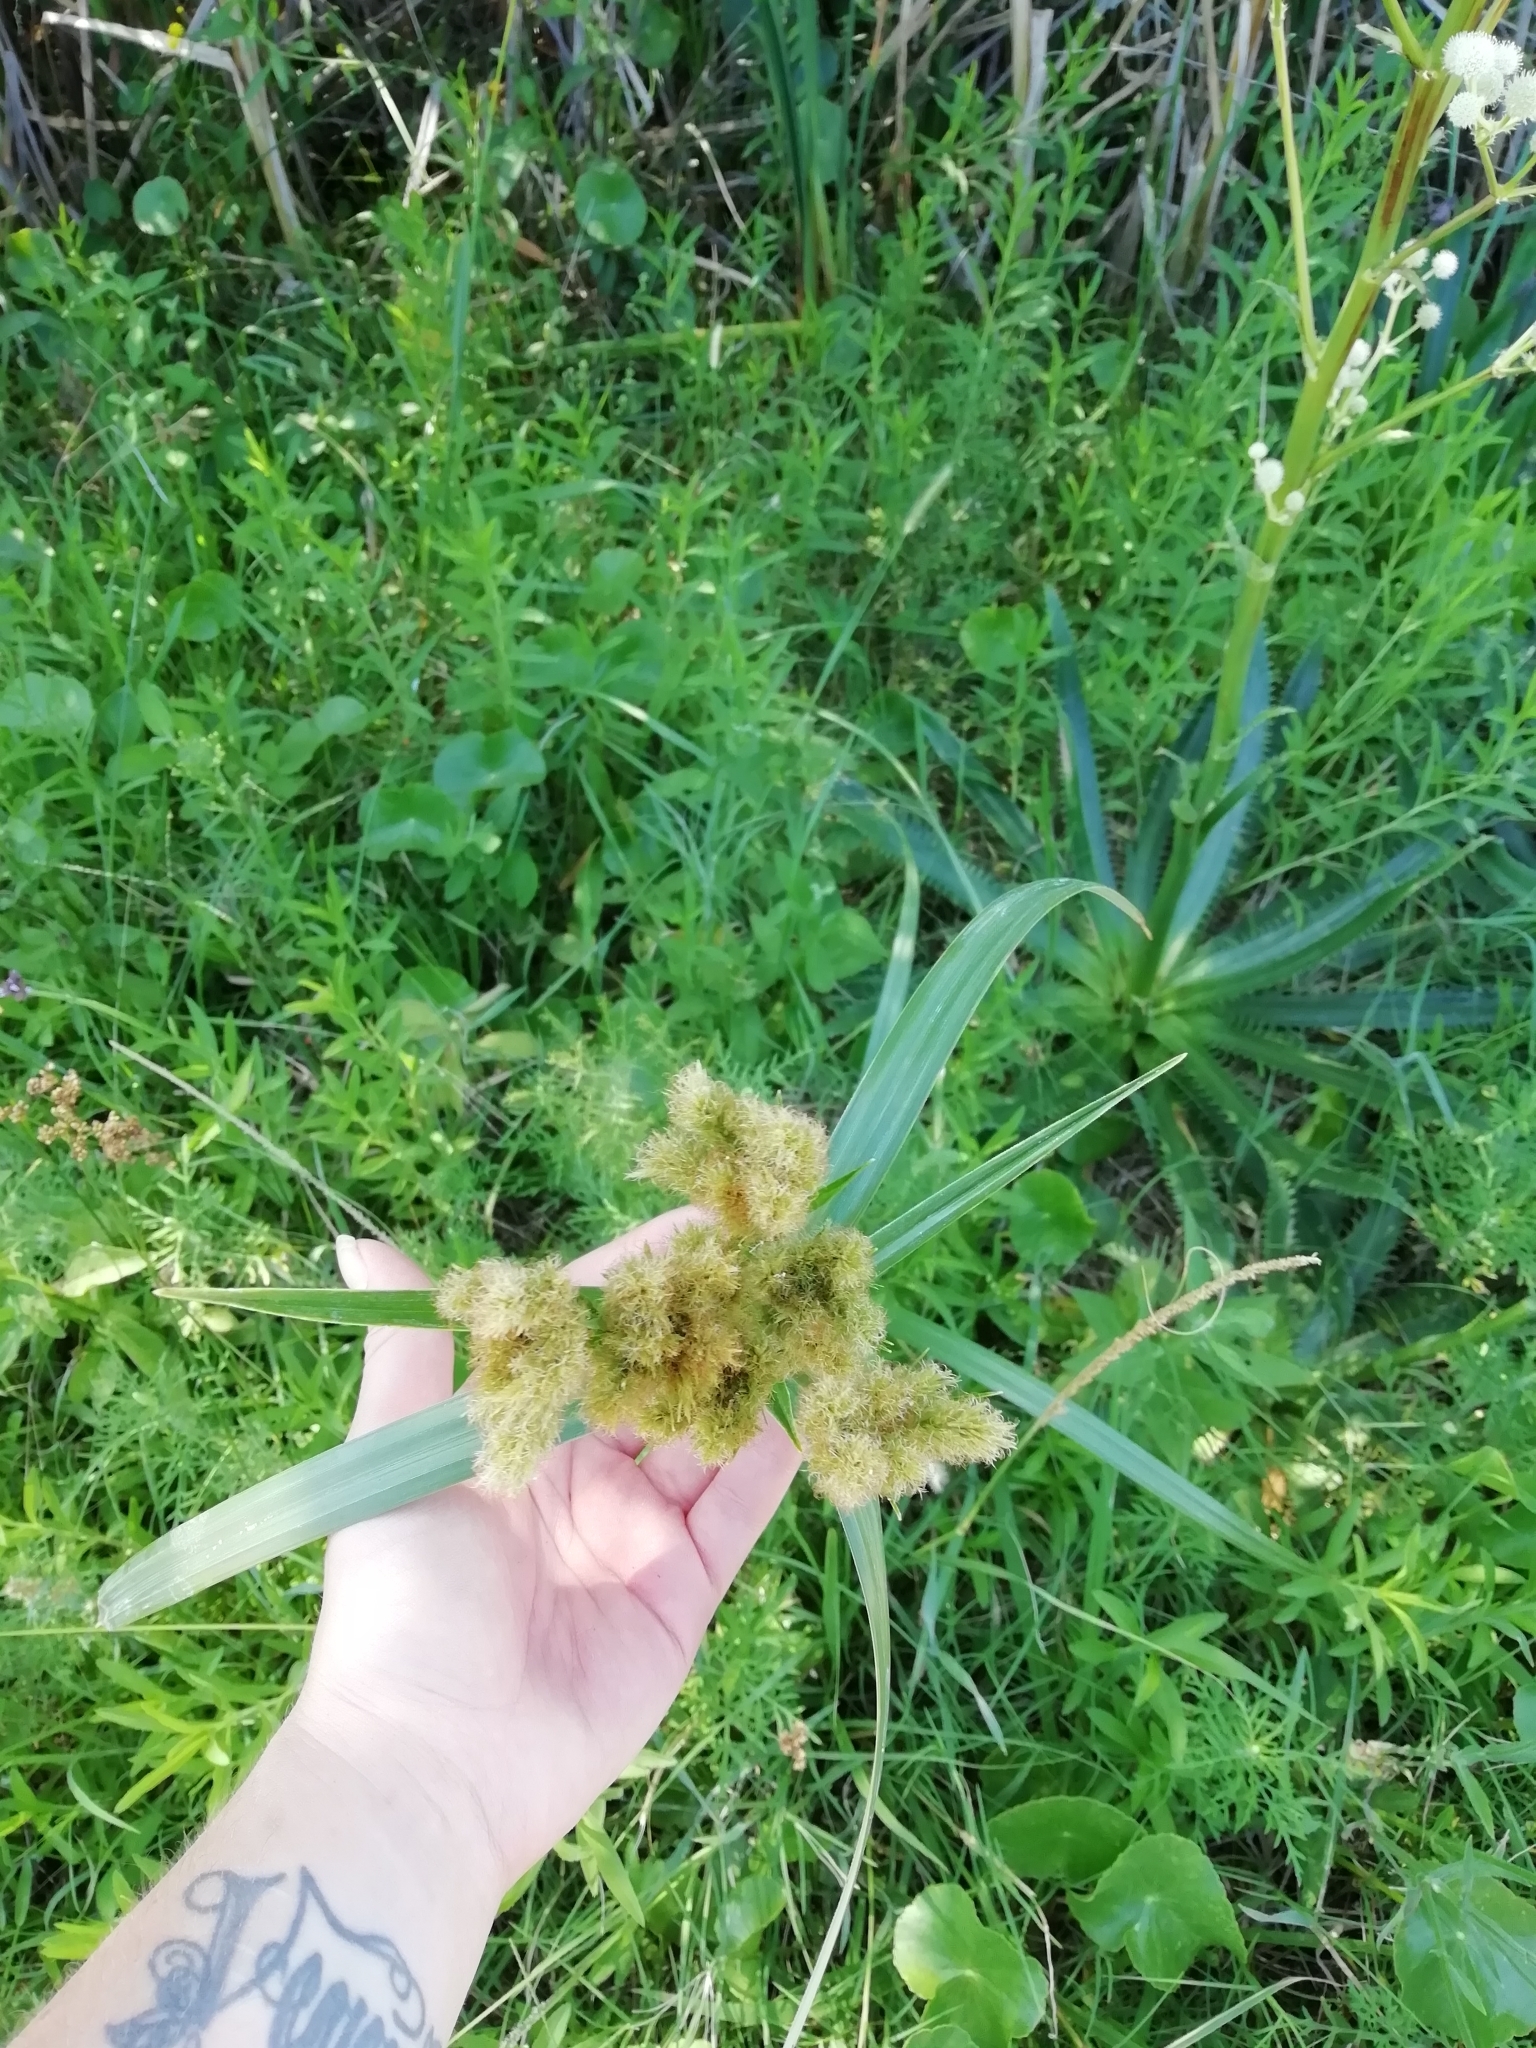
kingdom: Plantae
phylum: Tracheophyta
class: Liliopsida
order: Poales
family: Cyperaceae
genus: Cyperus
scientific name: Cyperus byssaceus
